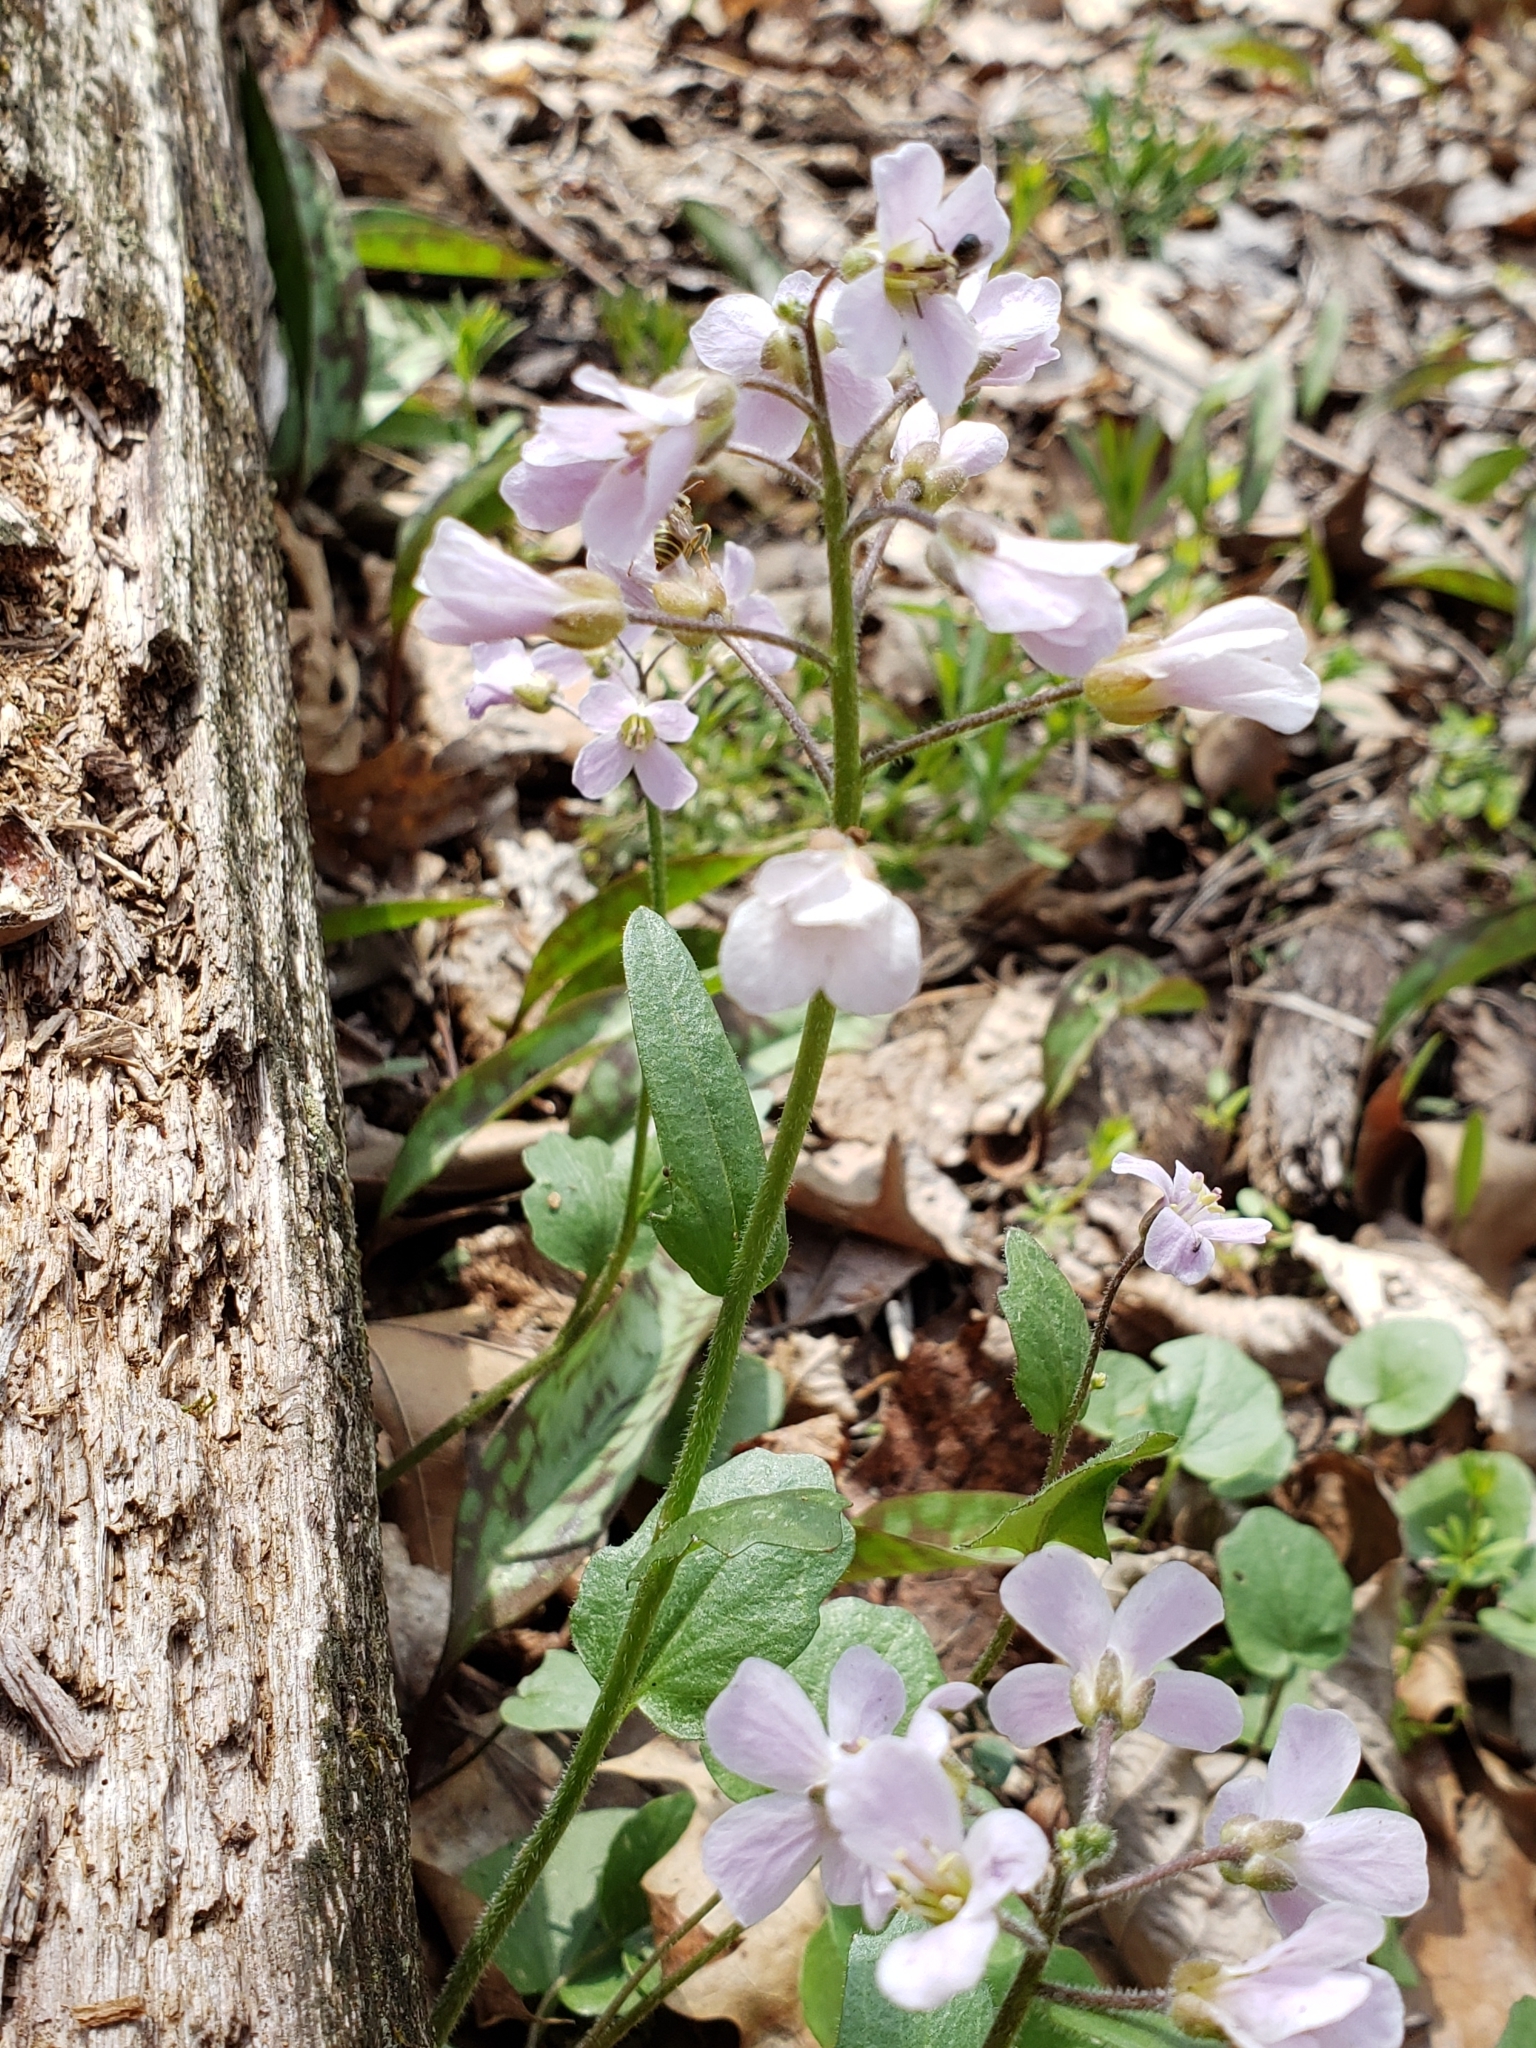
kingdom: Plantae
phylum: Tracheophyta
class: Magnoliopsida
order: Brassicales
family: Brassicaceae
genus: Cardamine
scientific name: Cardamine douglassii
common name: Purple cress
